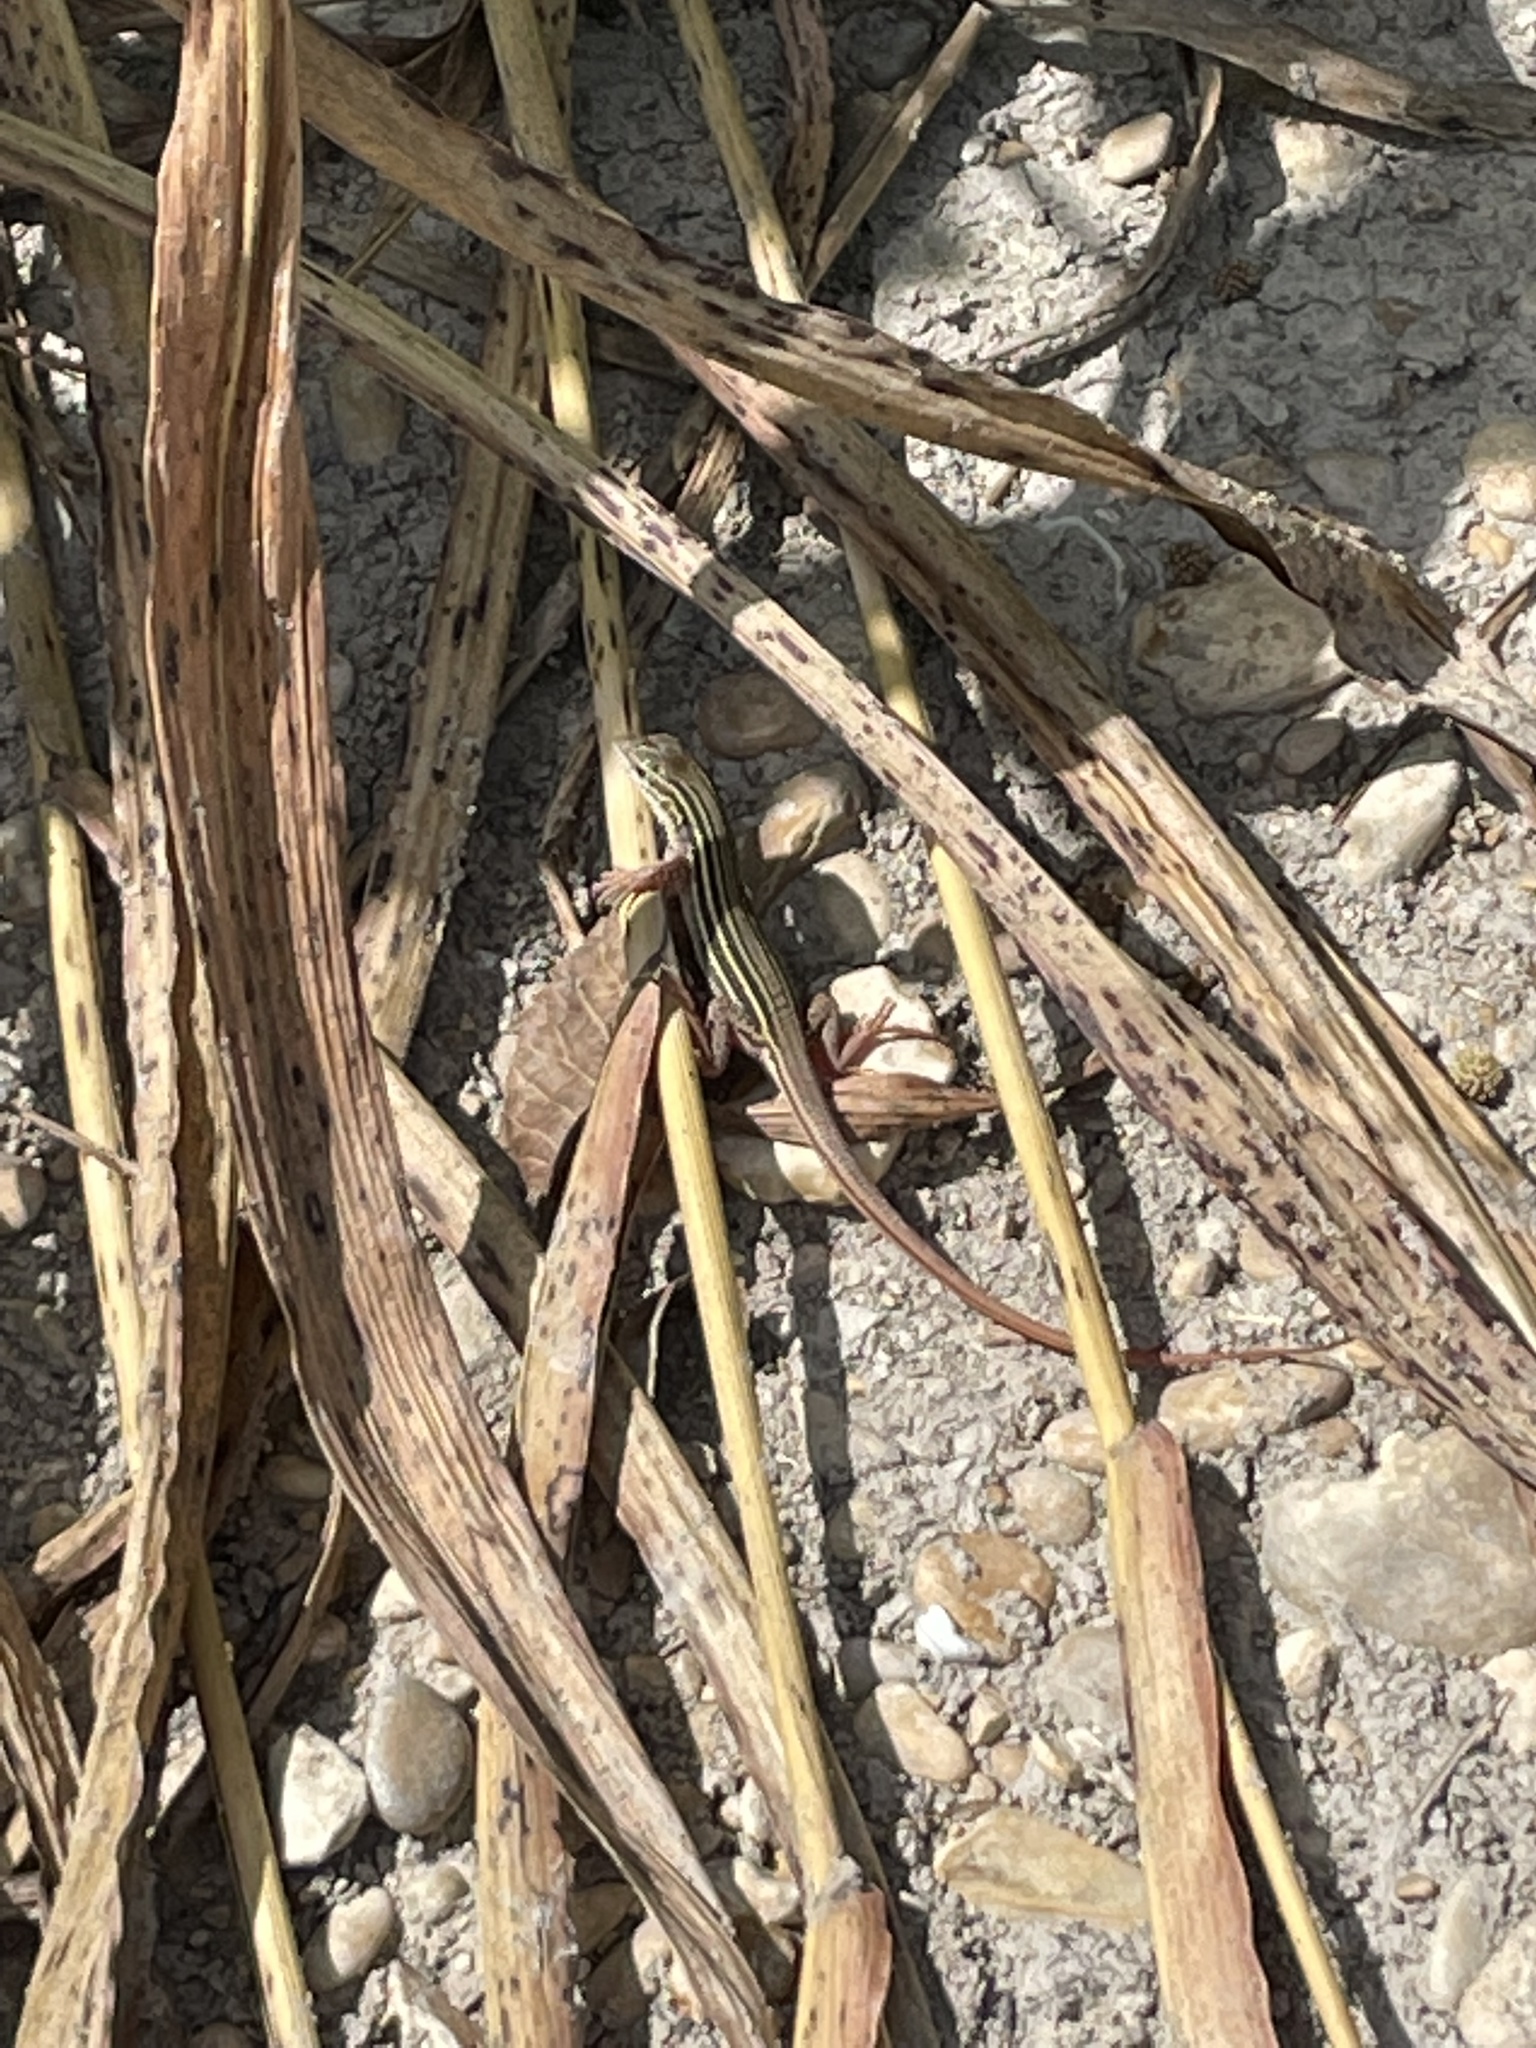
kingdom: Animalia
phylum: Chordata
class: Squamata
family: Teiidae
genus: Aspidoscelis
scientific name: Aspidoscelis gularis
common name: Eastern spotted whiptail
